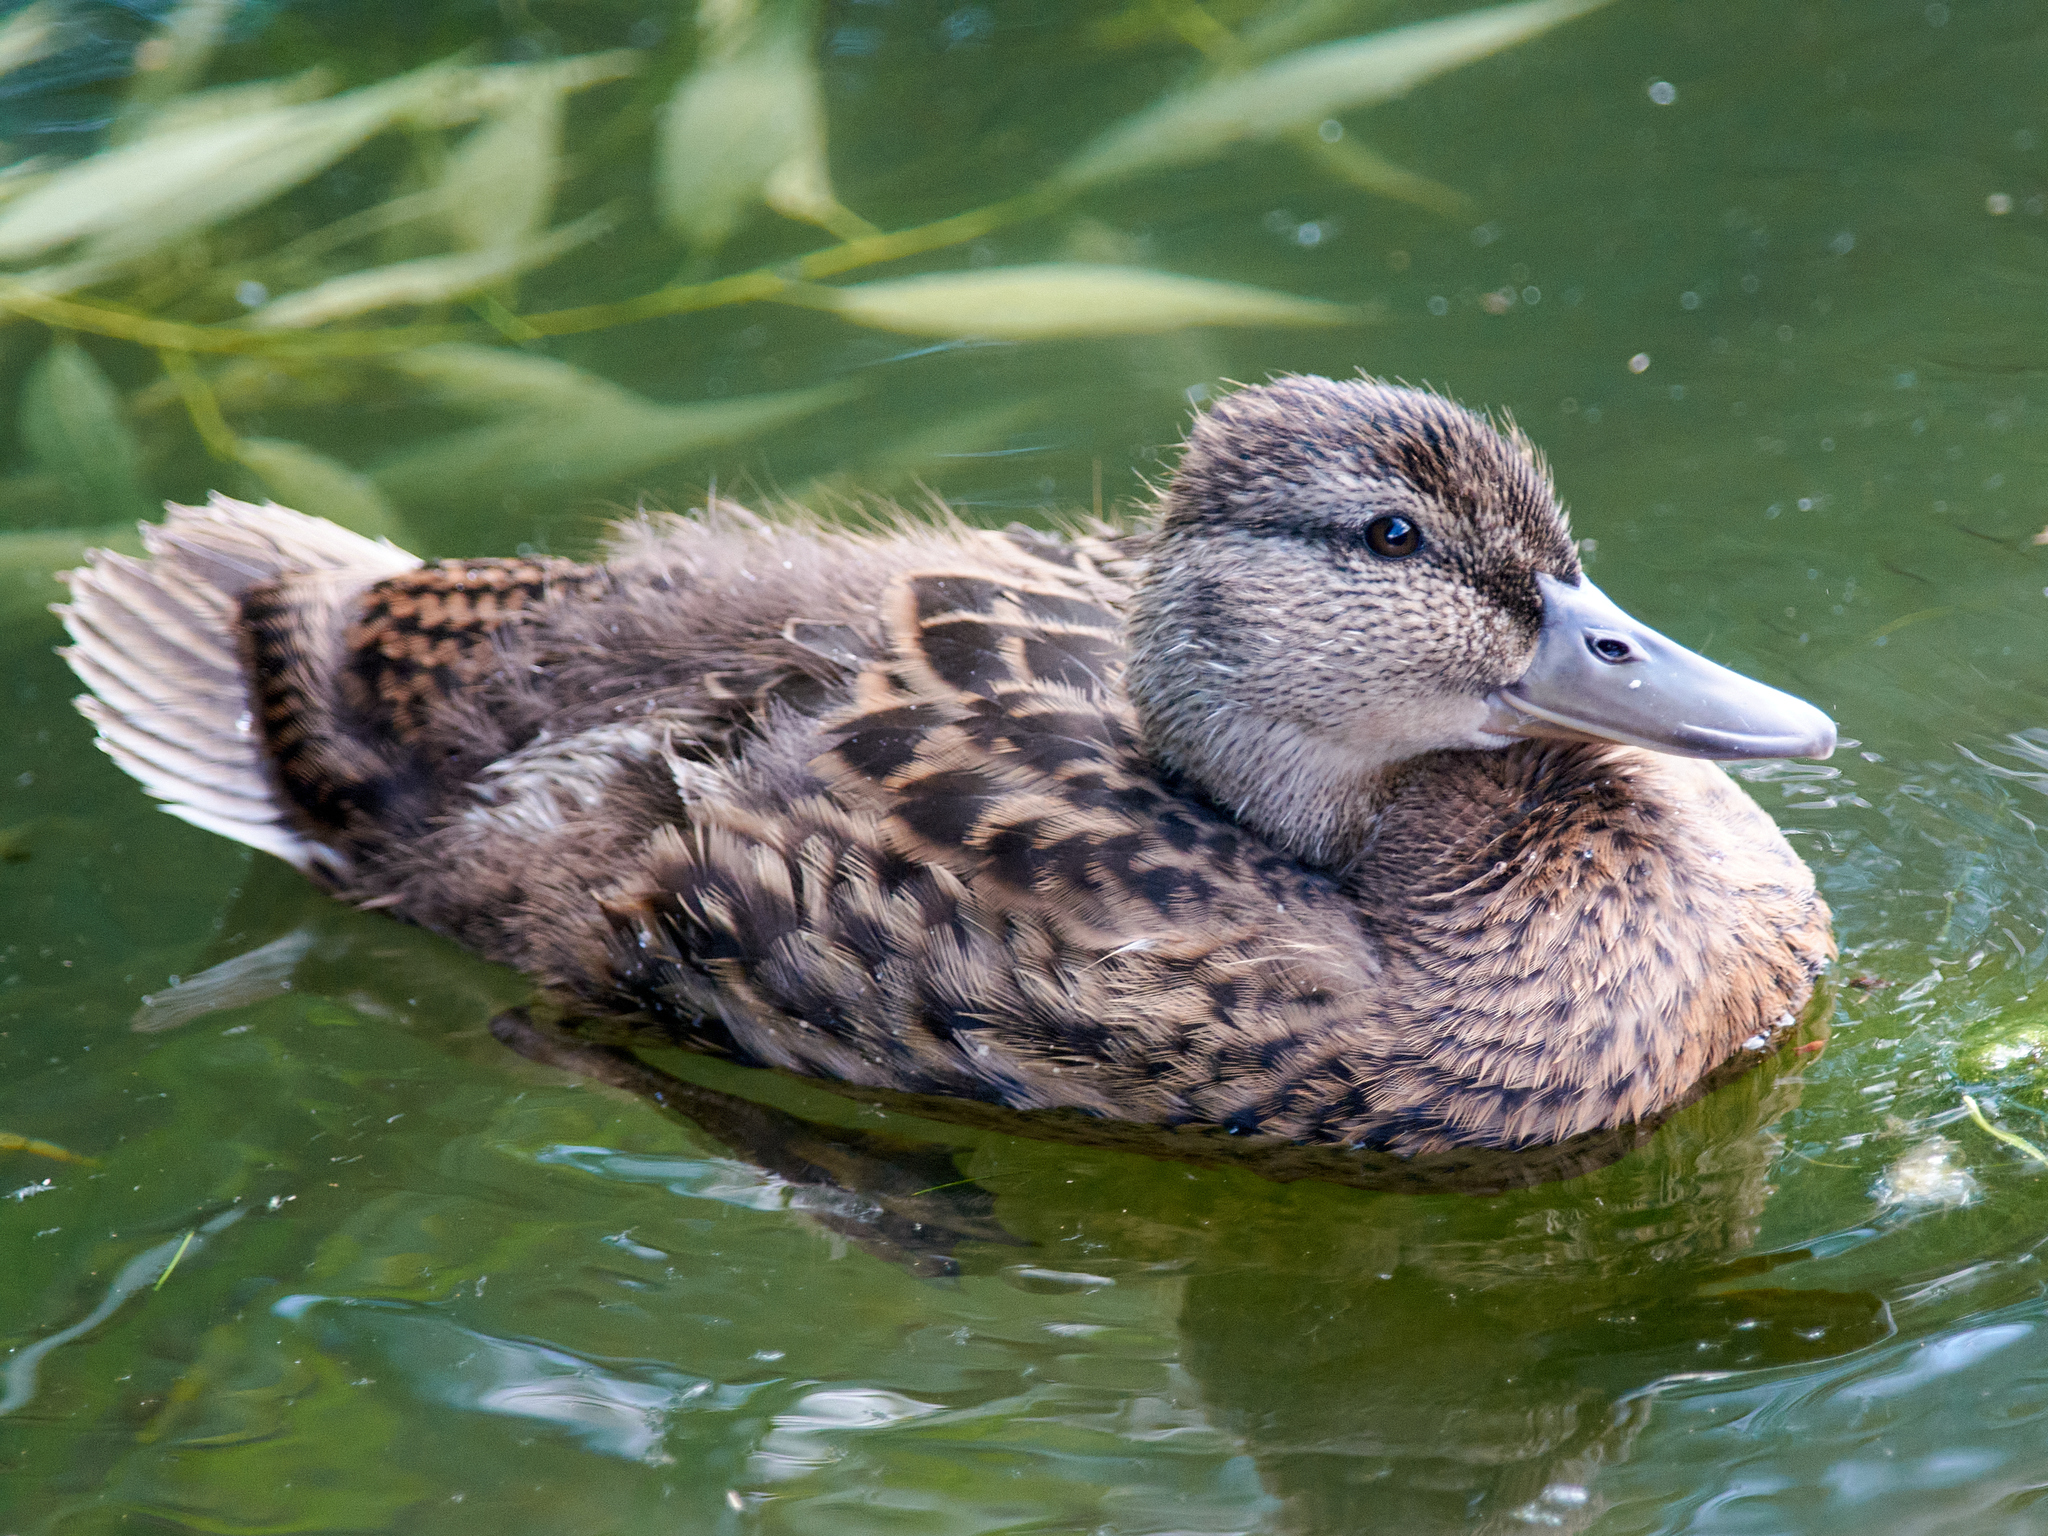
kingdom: Animalia
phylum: Chordata
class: Aves
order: Anseriformes
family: Anatidae
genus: Anas
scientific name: Anas platyrhynchos
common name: Mallard
